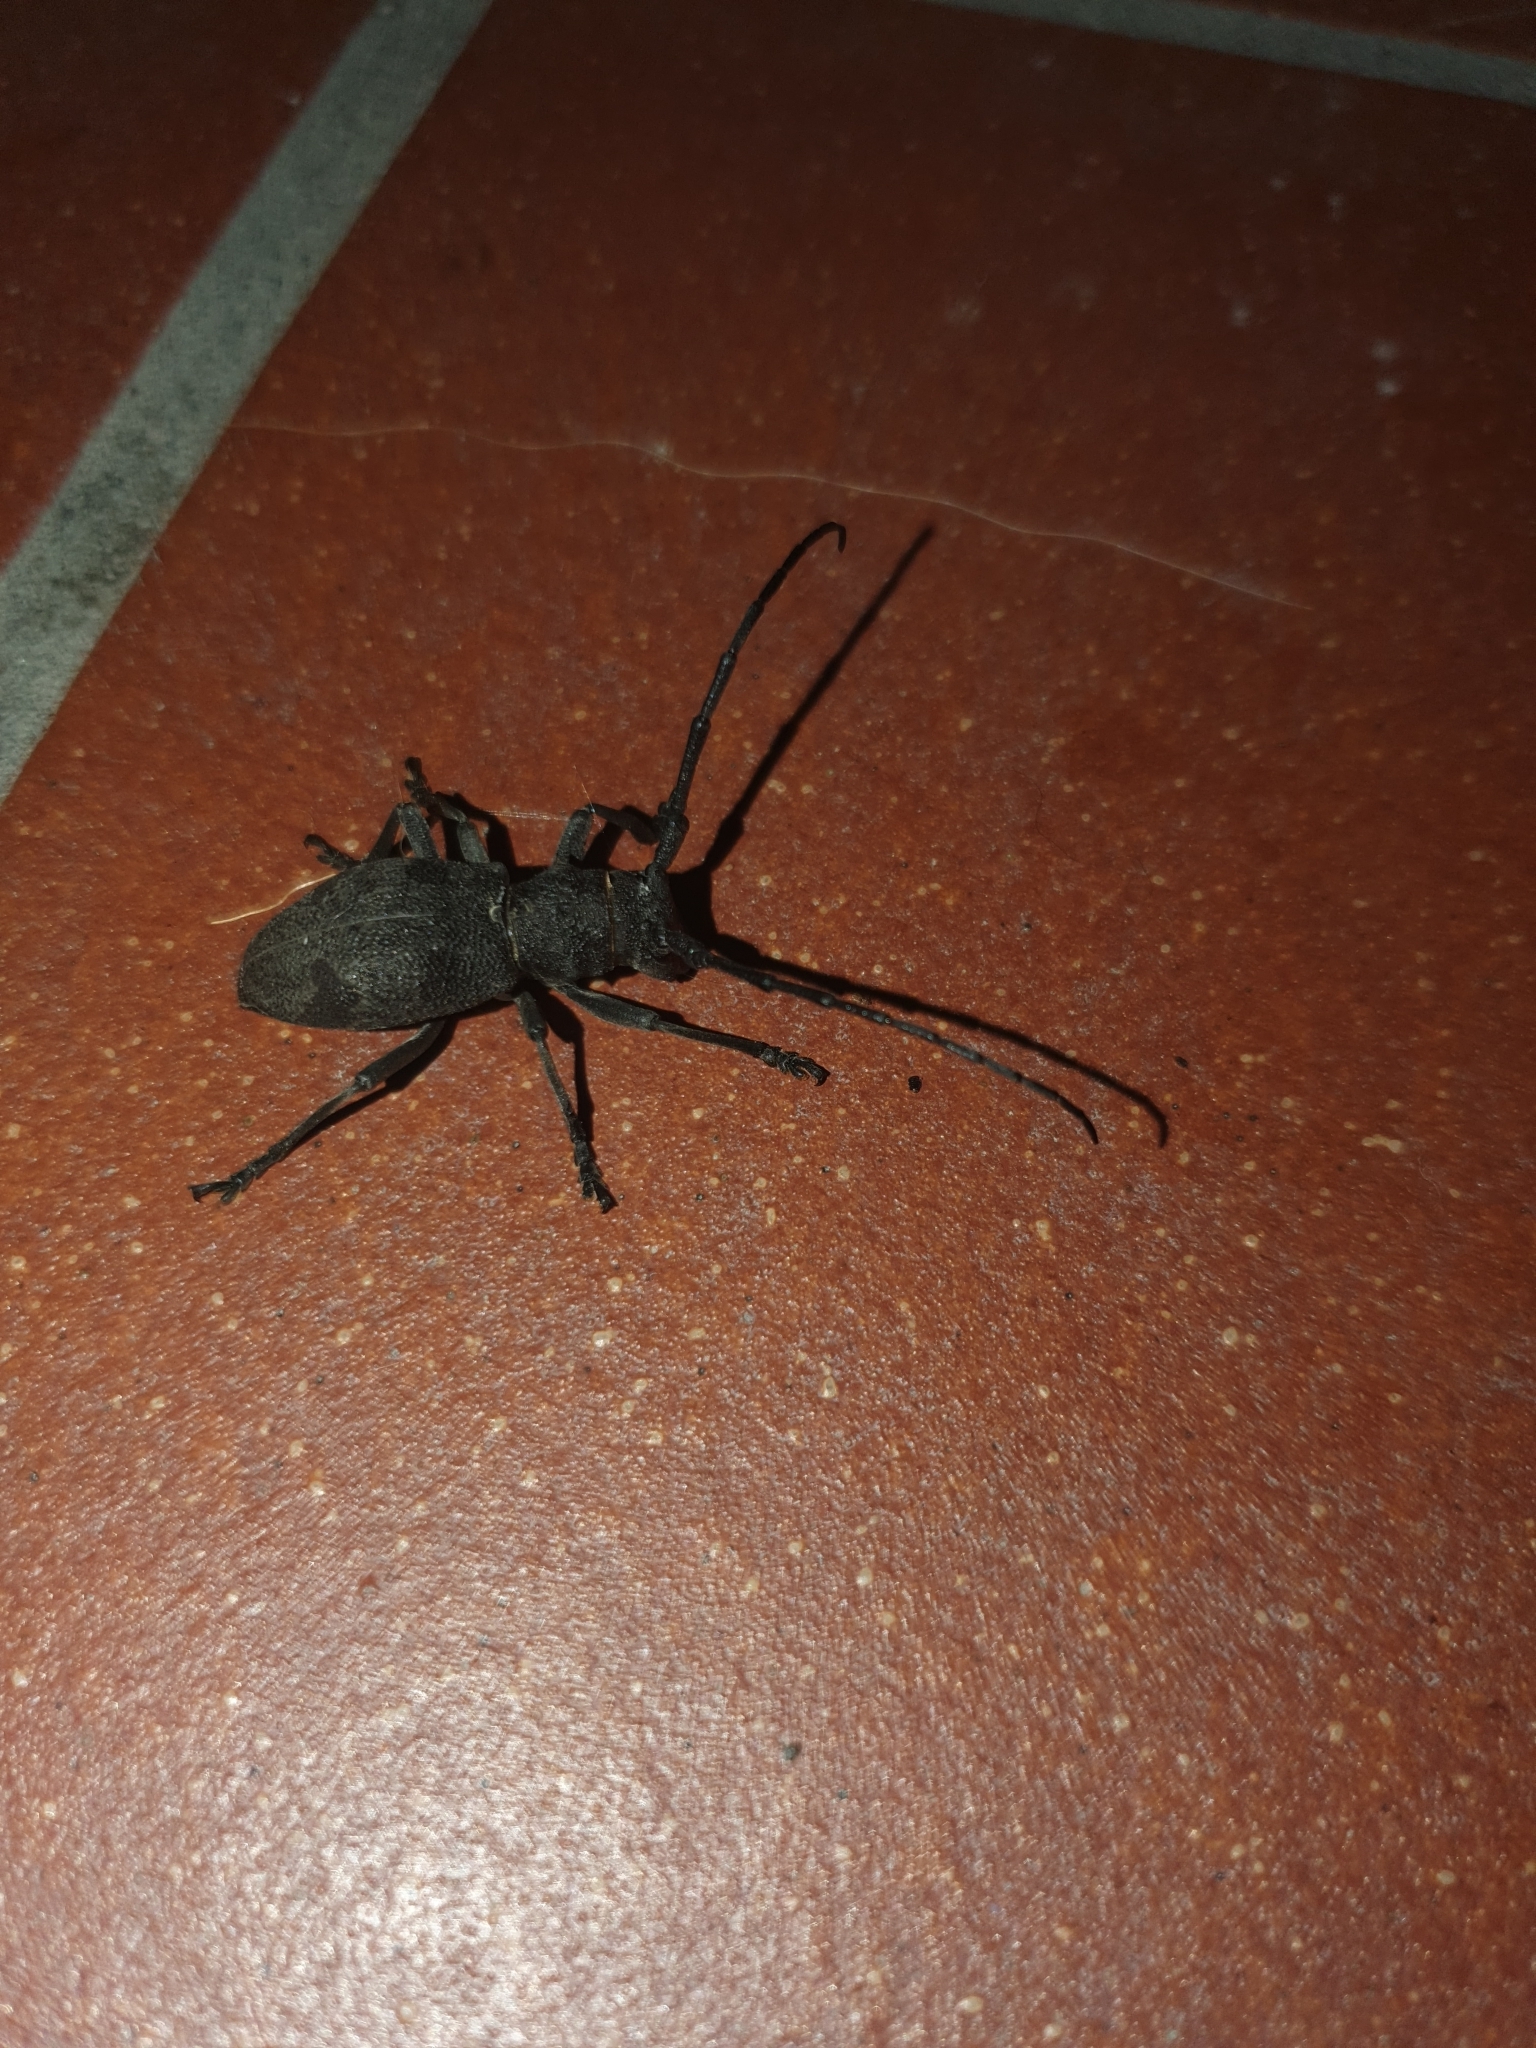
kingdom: Animalia
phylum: Arthropoda
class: Insecta
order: Coleoptera
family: Cerambycidae
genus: Morimus
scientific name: Morimus asper
